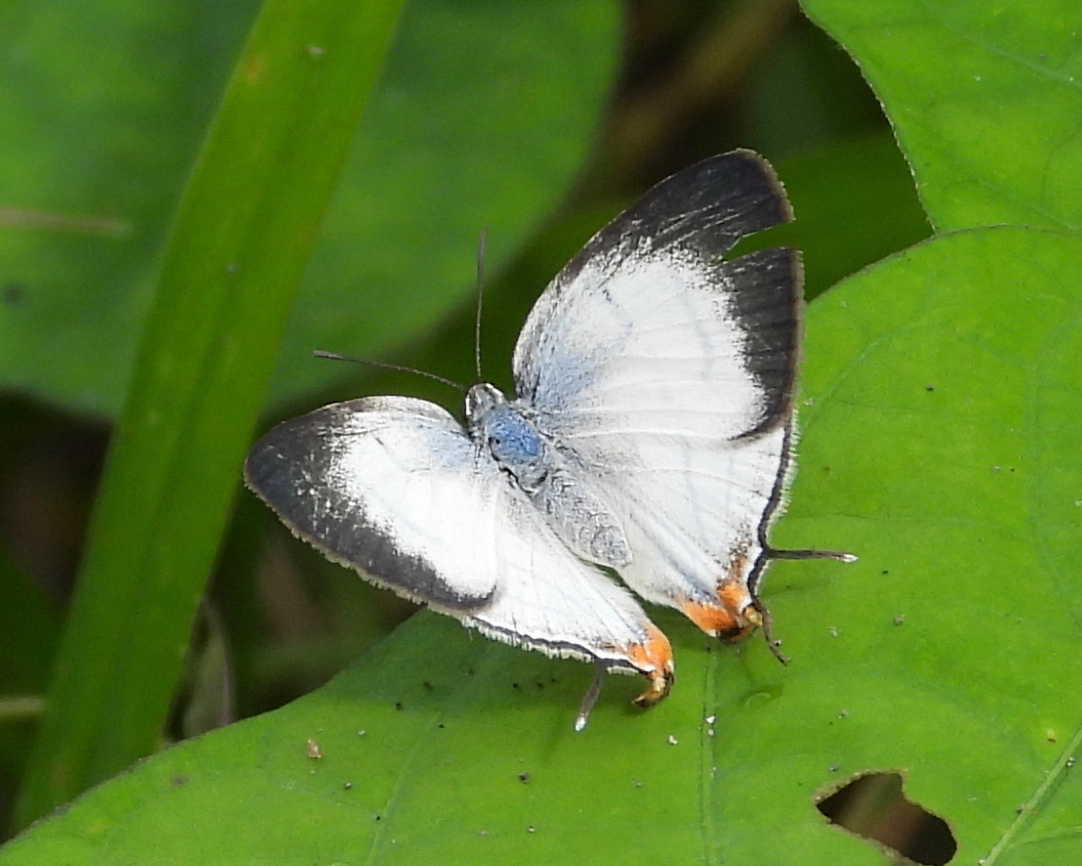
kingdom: Animalia
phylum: Arthropoda
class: Insecta
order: Lepidoptera
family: Lycaenidae
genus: Arawacus
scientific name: Arawacus sito
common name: Fine-lined hairstreak
